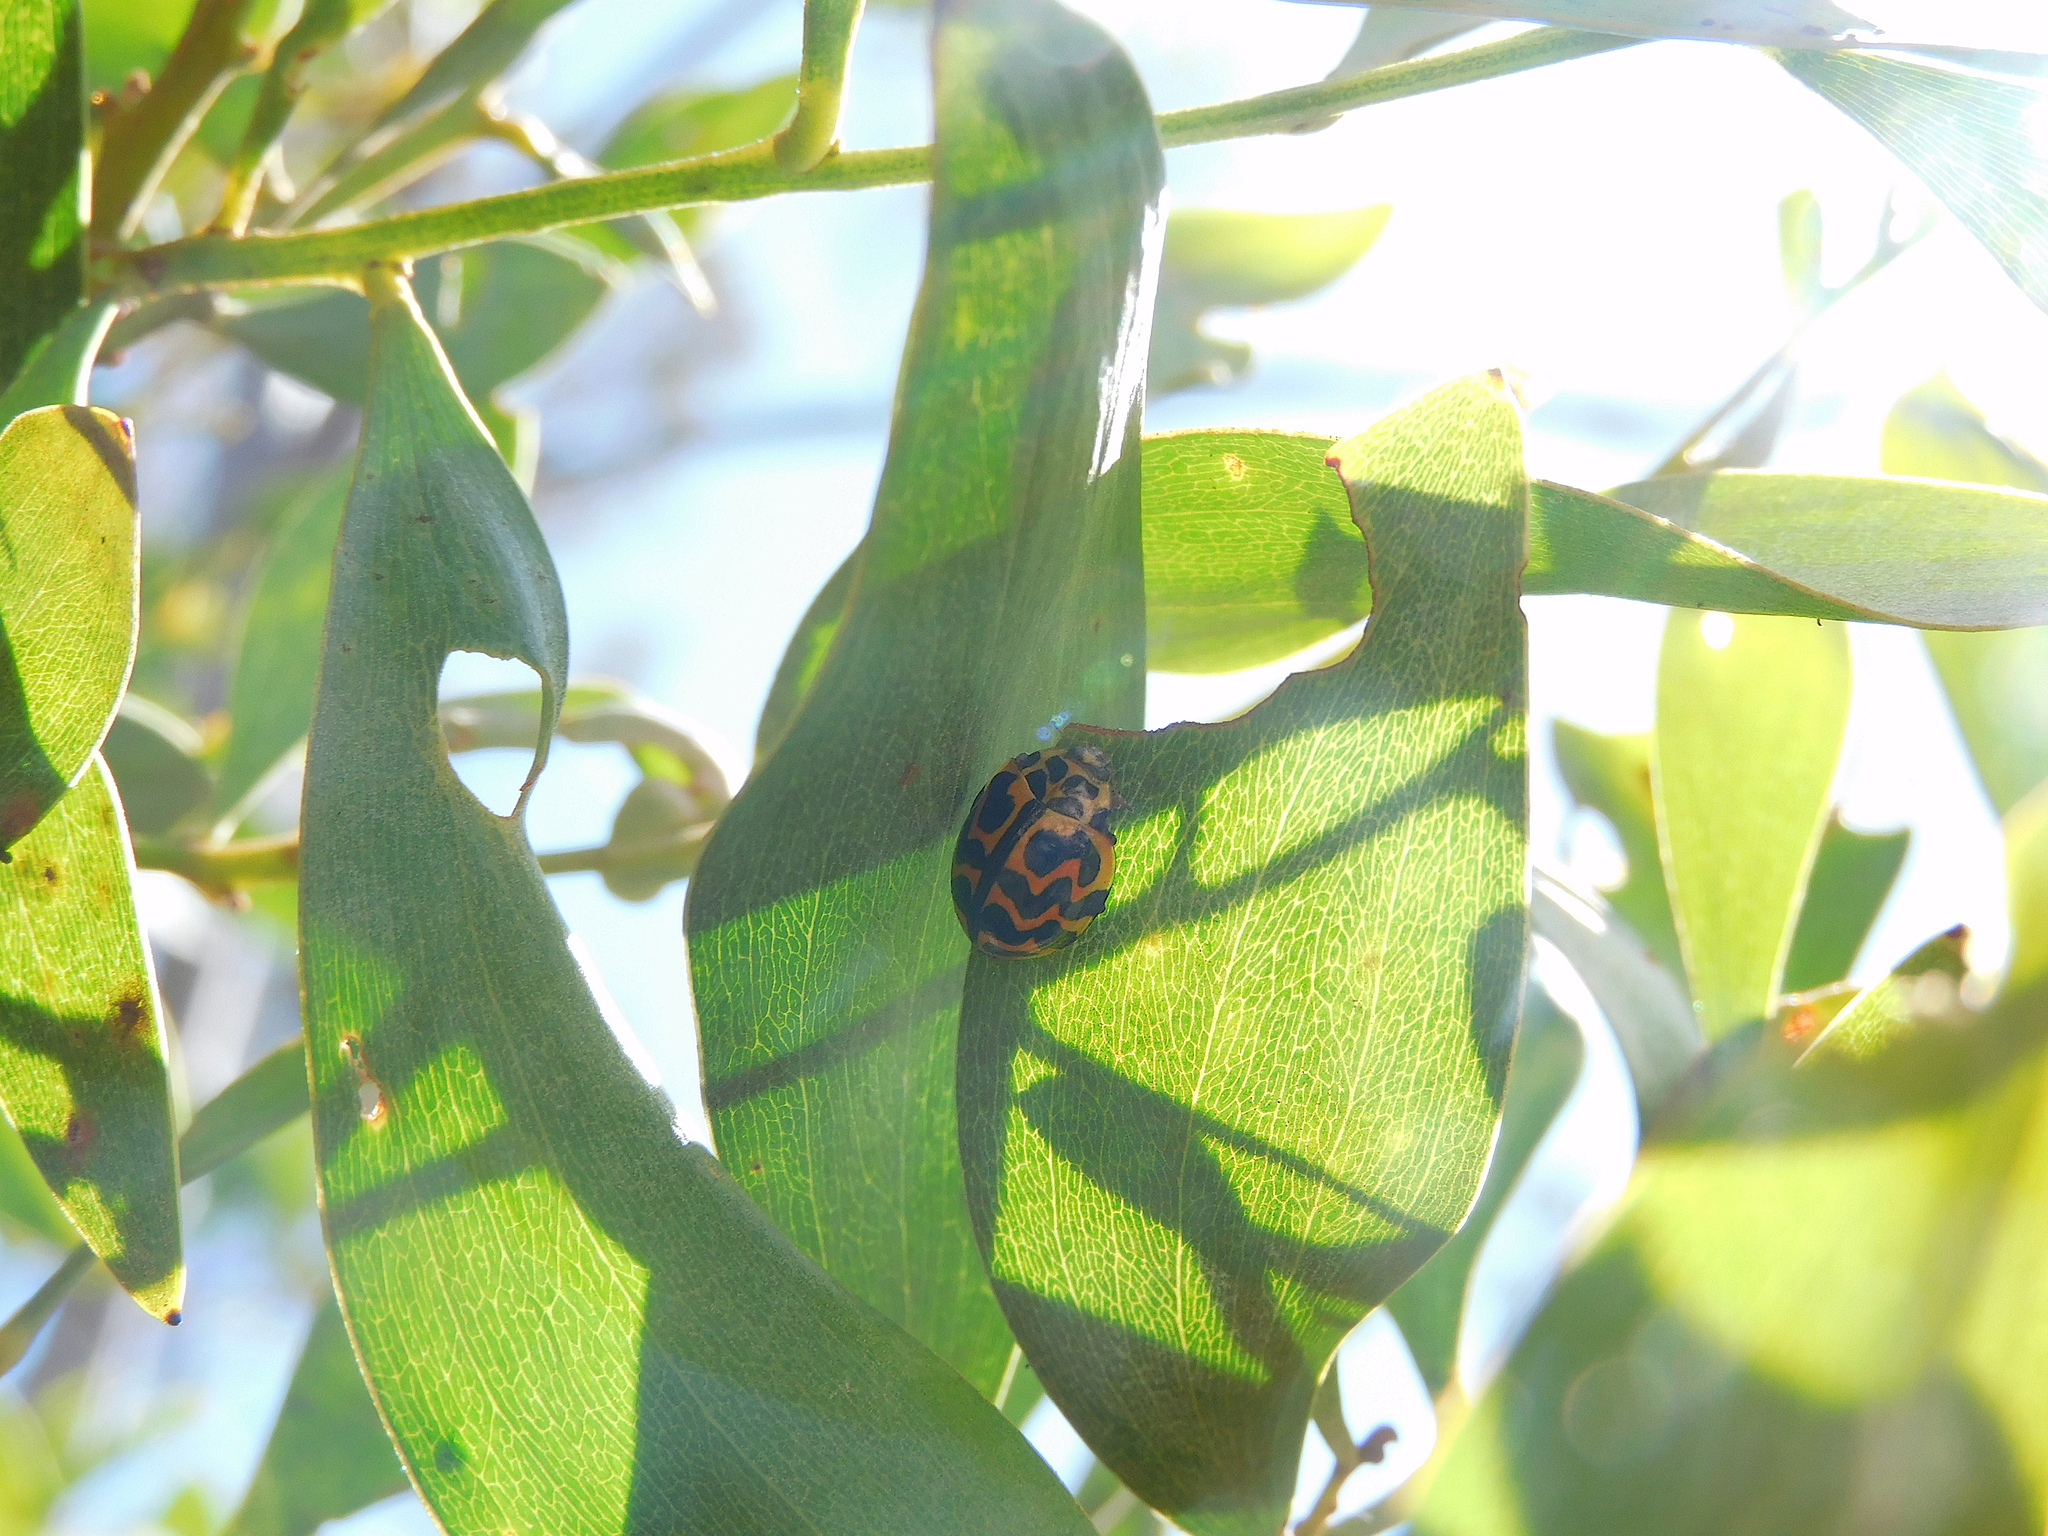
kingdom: Animalia
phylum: Arthropoda
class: Insecta
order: Coleoptera
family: Coccinellidae
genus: Cleobora
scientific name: Cleobora
